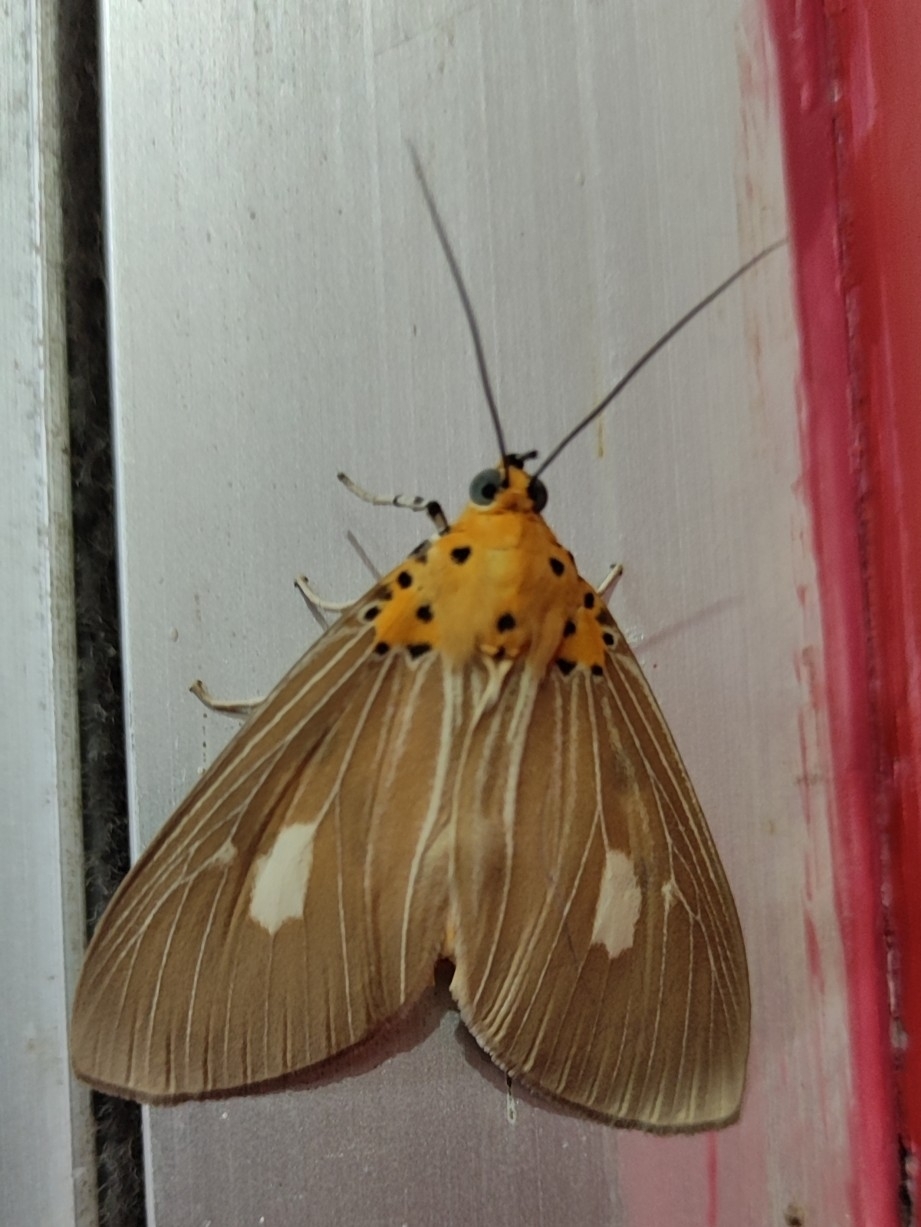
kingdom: Animalia
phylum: Arthropoda
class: Insecta
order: Lepidoptera
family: Erebidae
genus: Asota
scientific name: Asota plaginota
